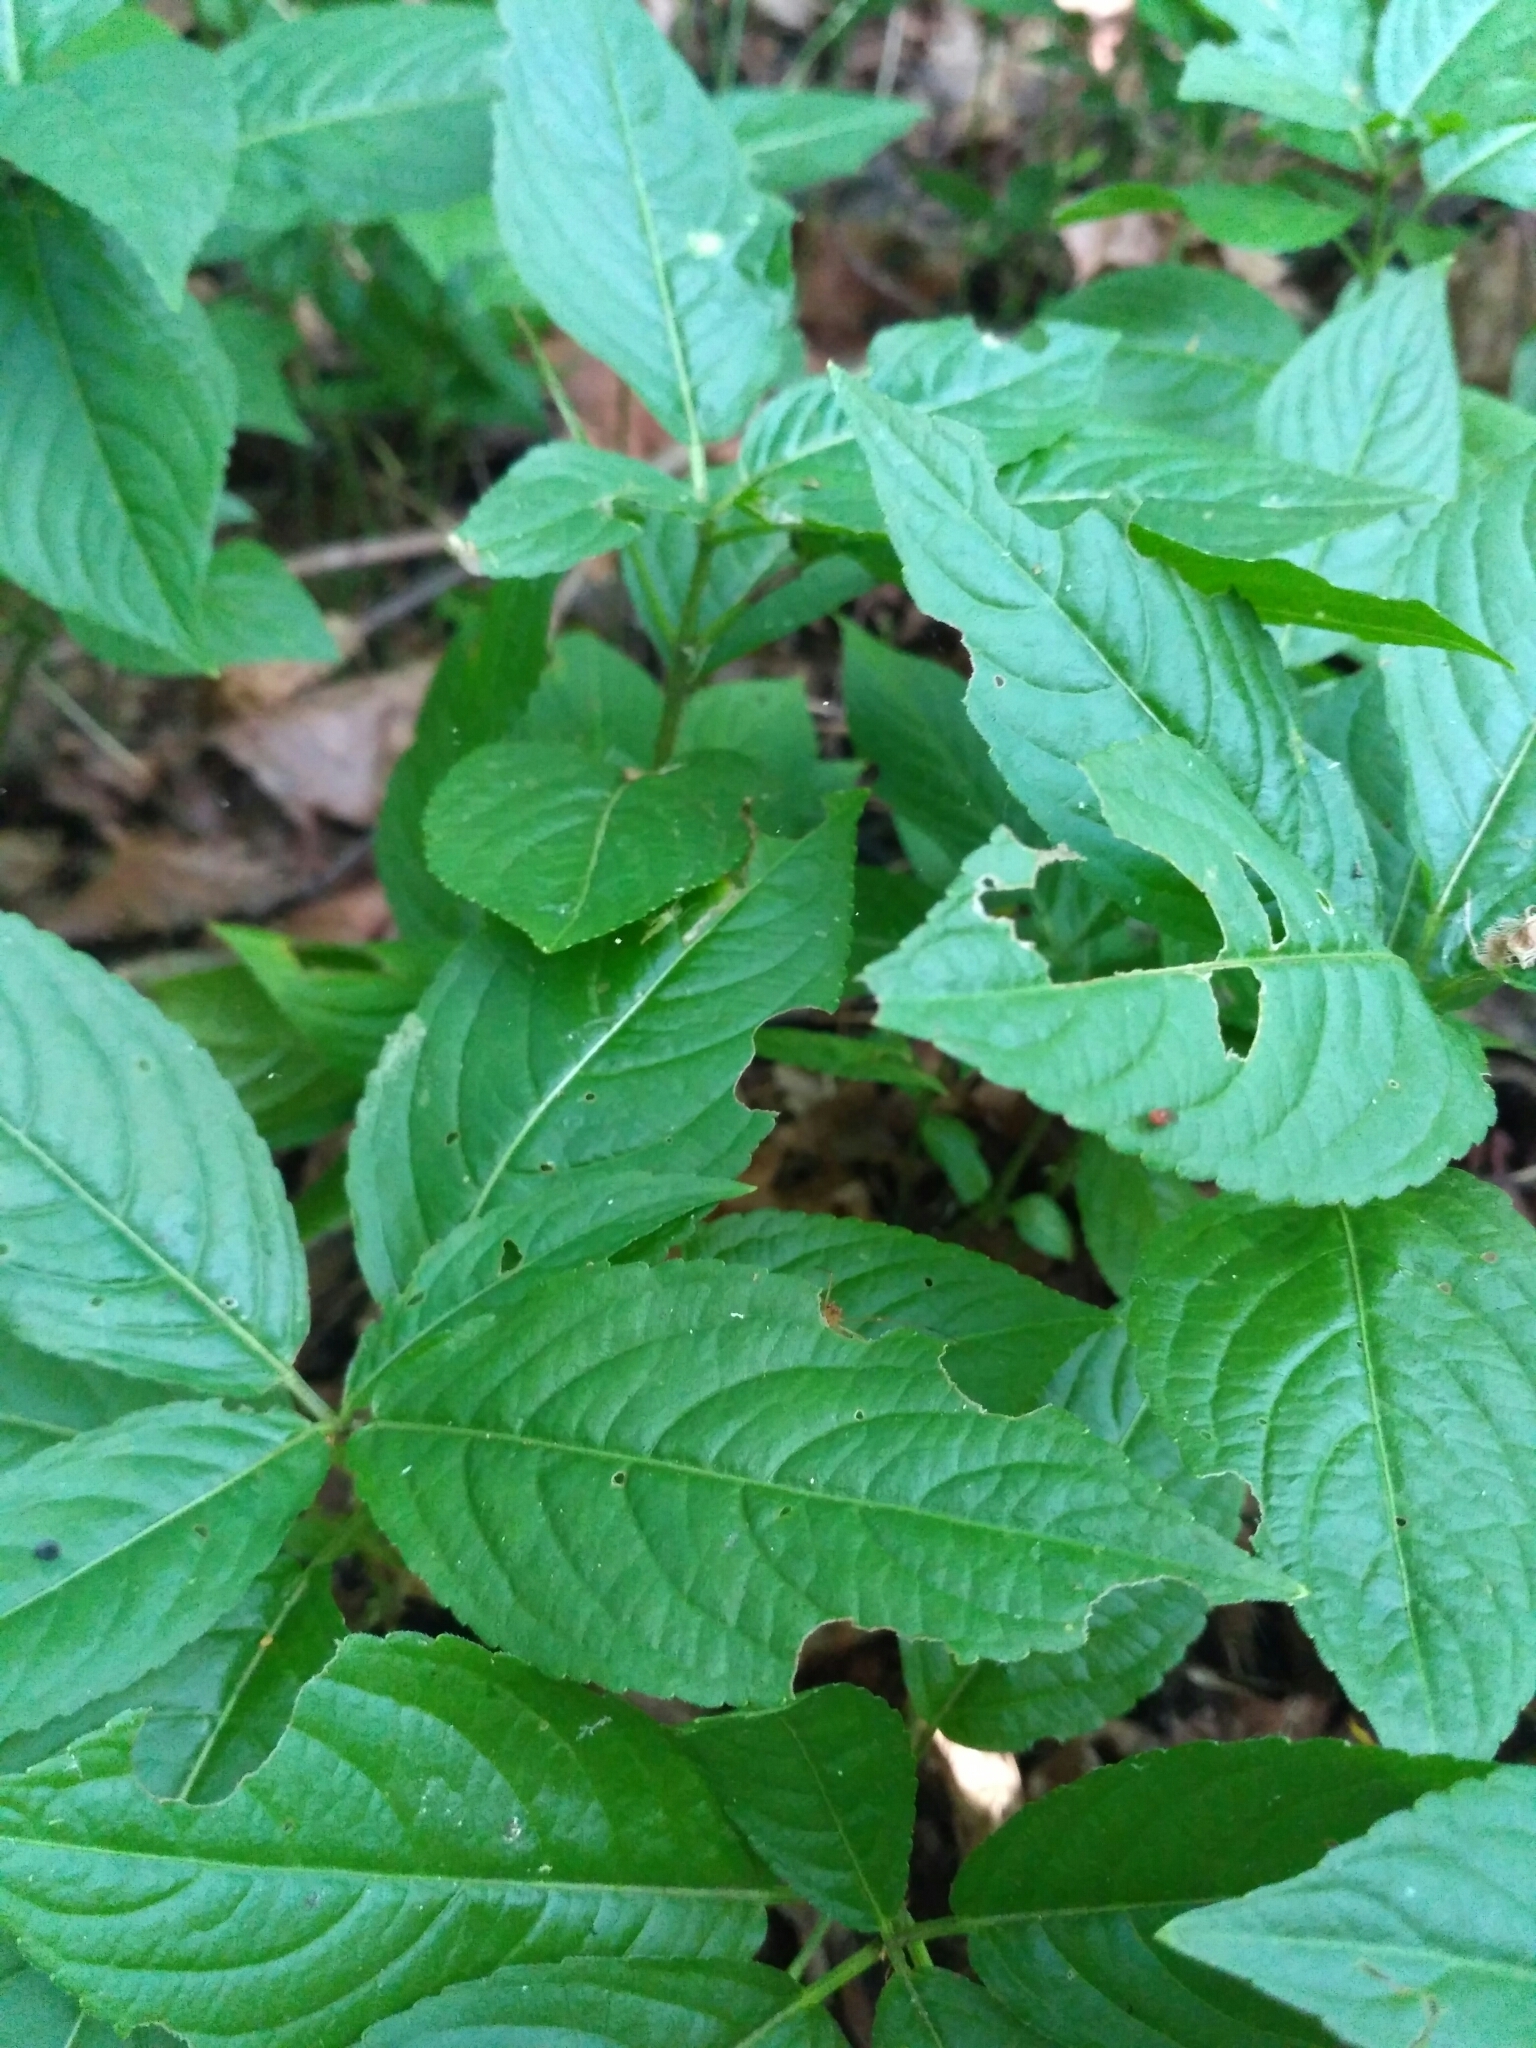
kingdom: Plantae
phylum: Tracheophyta
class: Magnoliopsida
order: Malpighiales
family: Euphorbiaceae
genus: Mercurialis
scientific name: Mercurialis perennis
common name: Dog mercury
